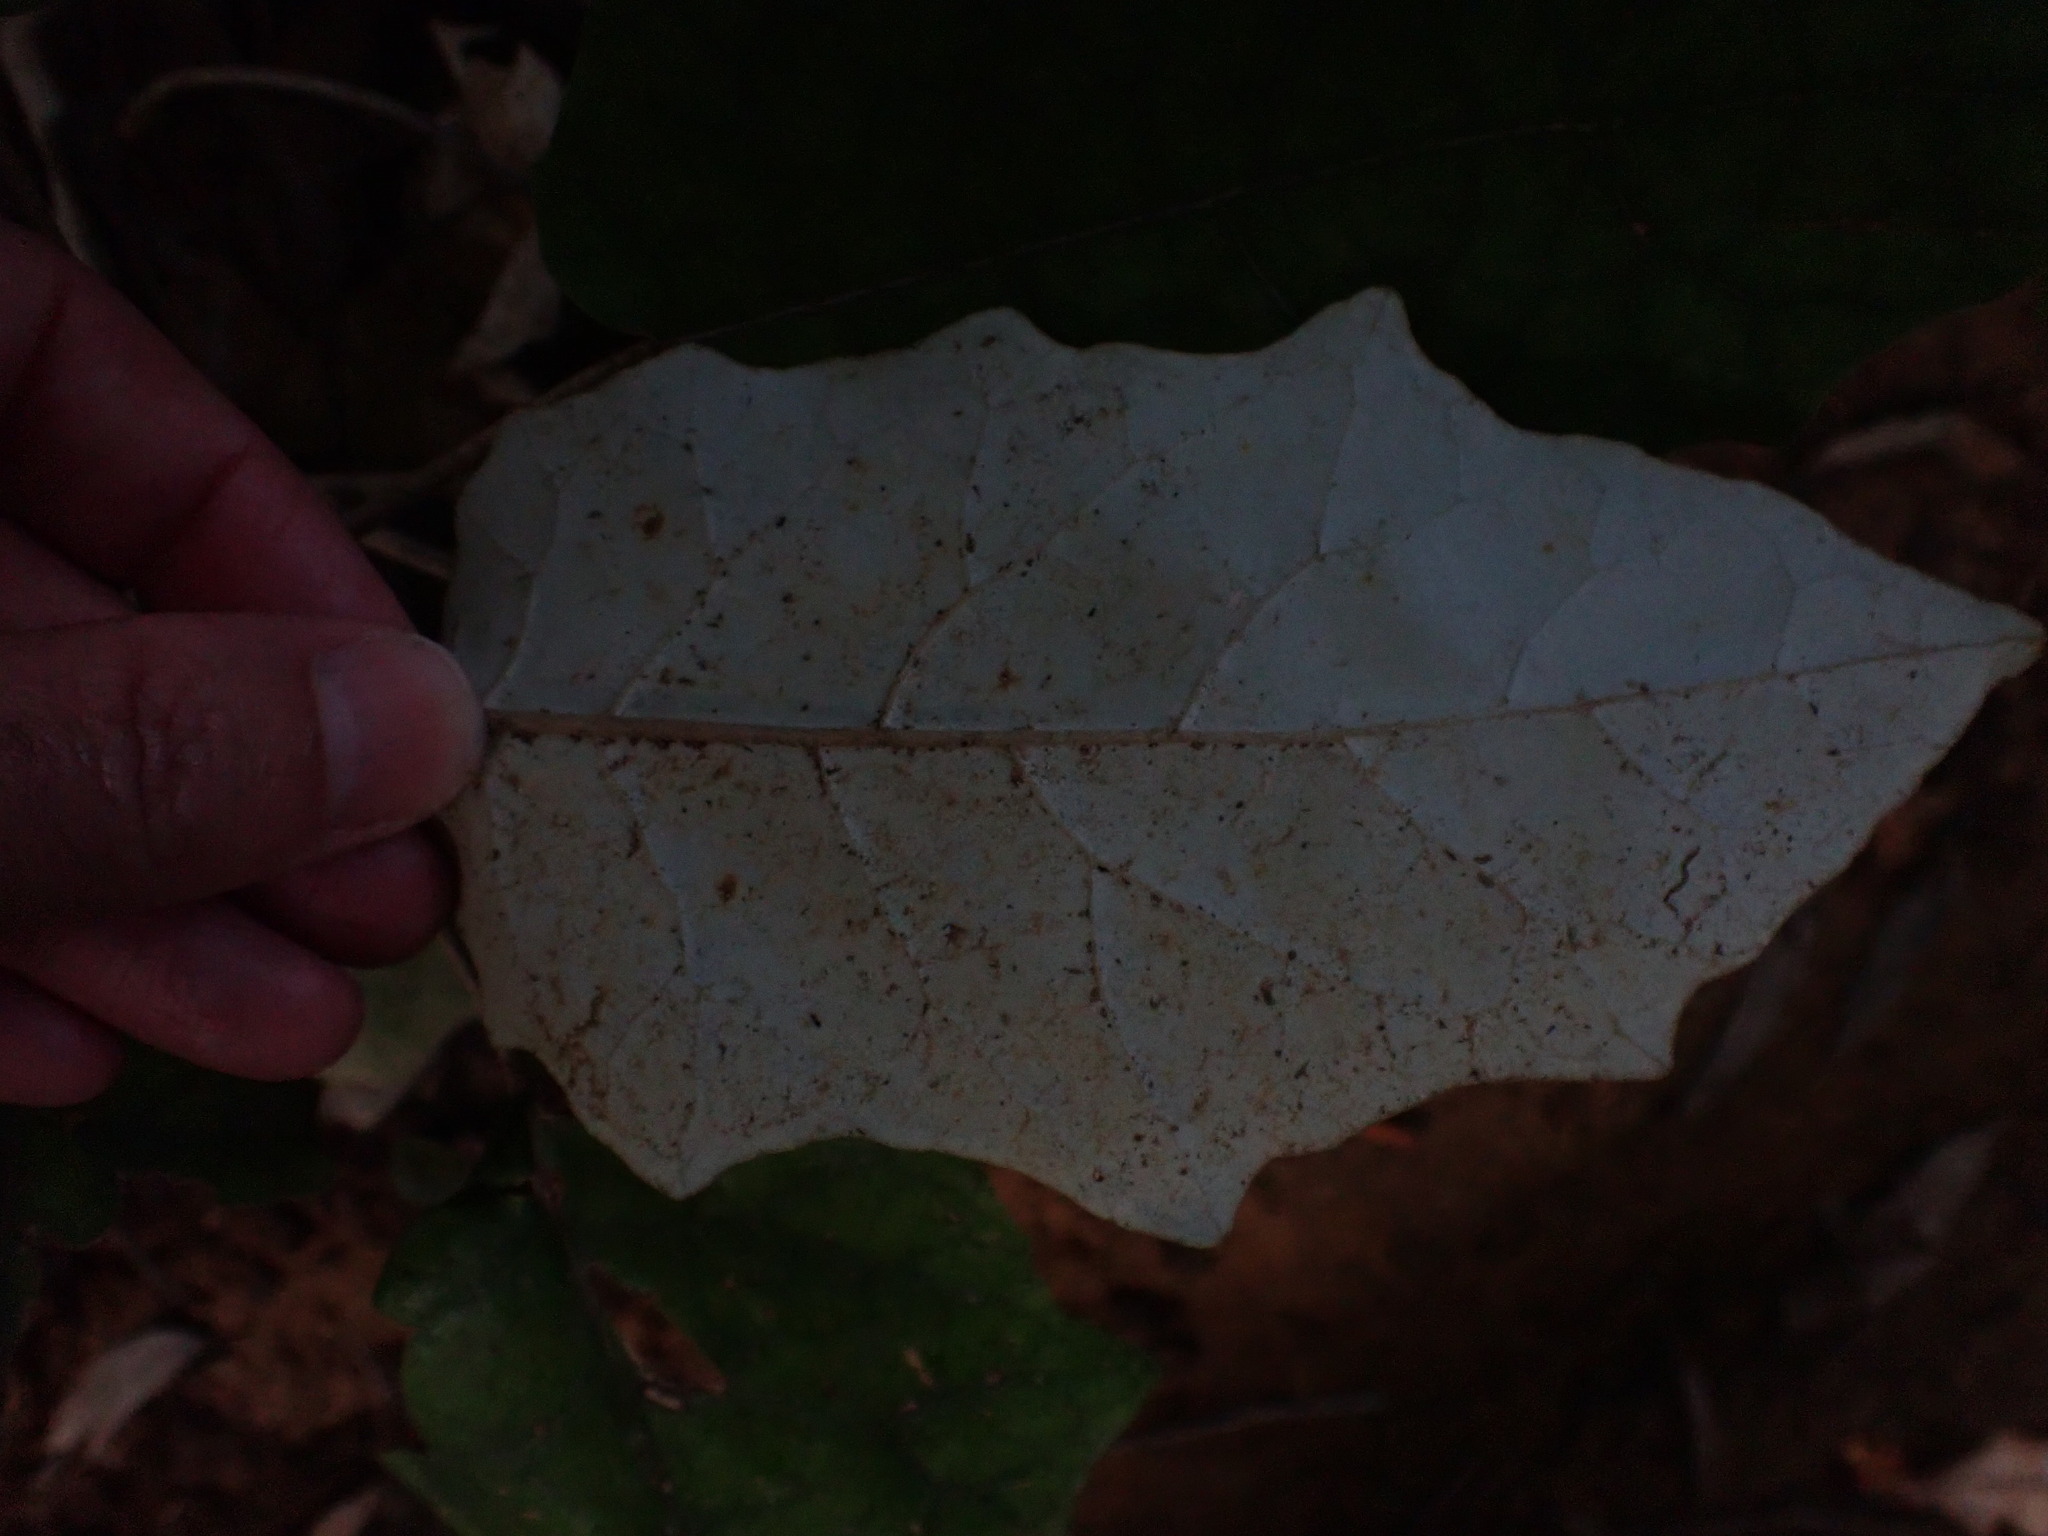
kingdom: Plantae
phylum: Tracheophyta
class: Magnoliopsida
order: Asterales
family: Asteraceae
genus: Brachyglottis
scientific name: Brachyglottis repanda
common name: Hedge ragwort
